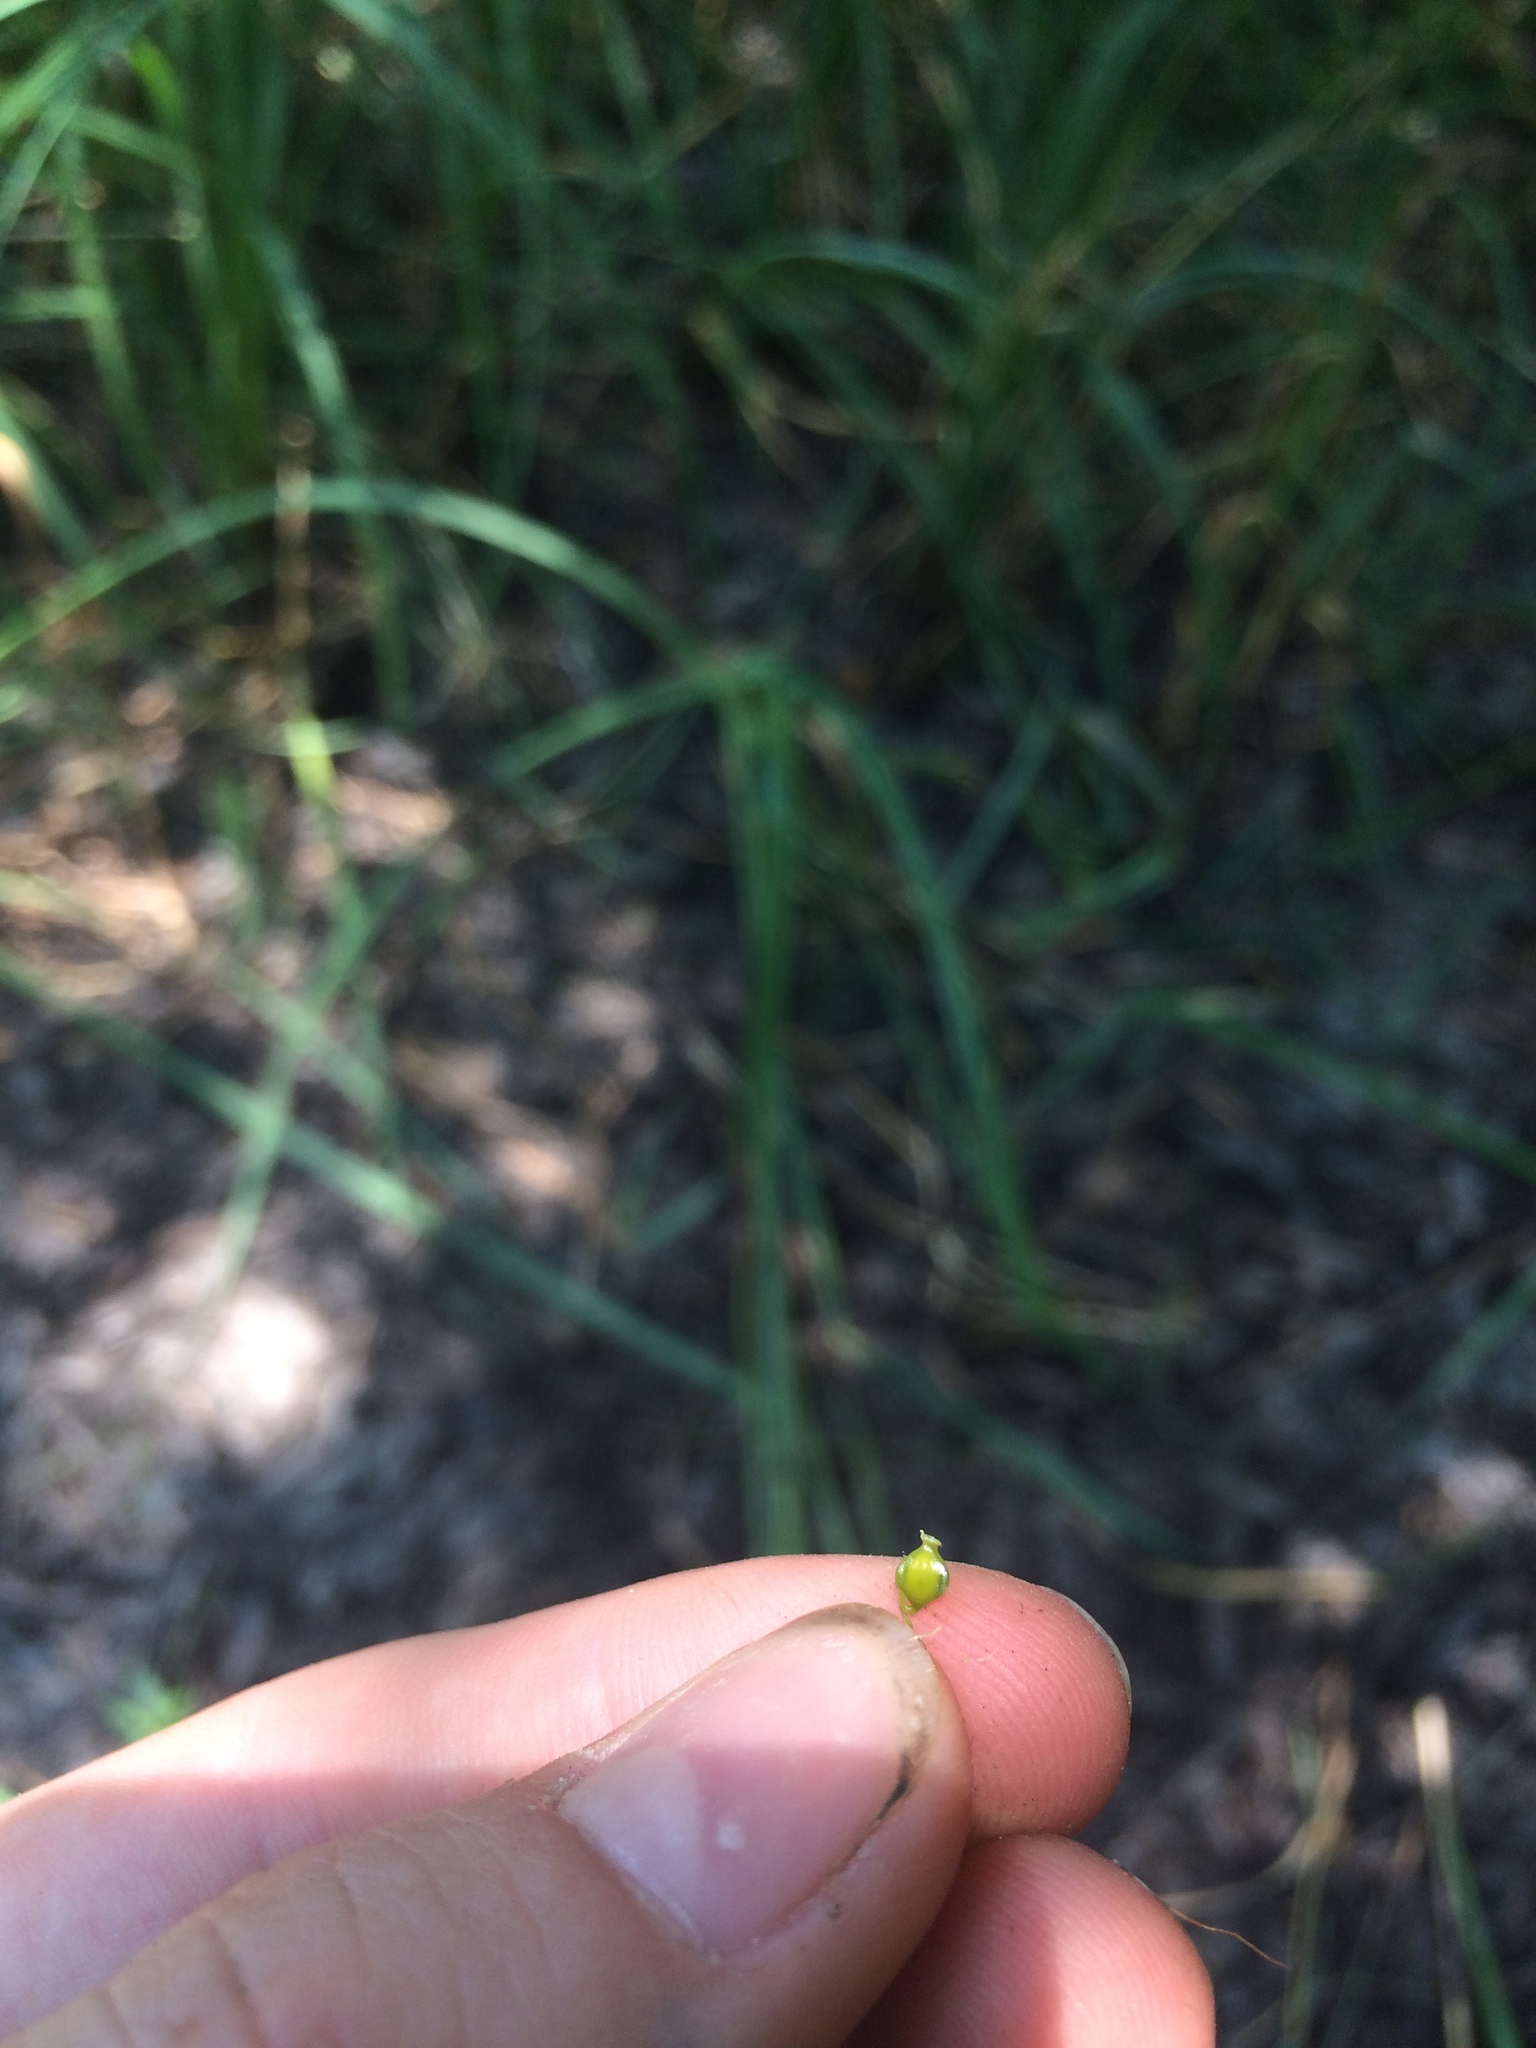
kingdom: Plantae
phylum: Tracheophyta
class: Liliopsida
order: Poales
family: Cyperaceae
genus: Carex
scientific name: Carex lupulina
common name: Hop sedge
